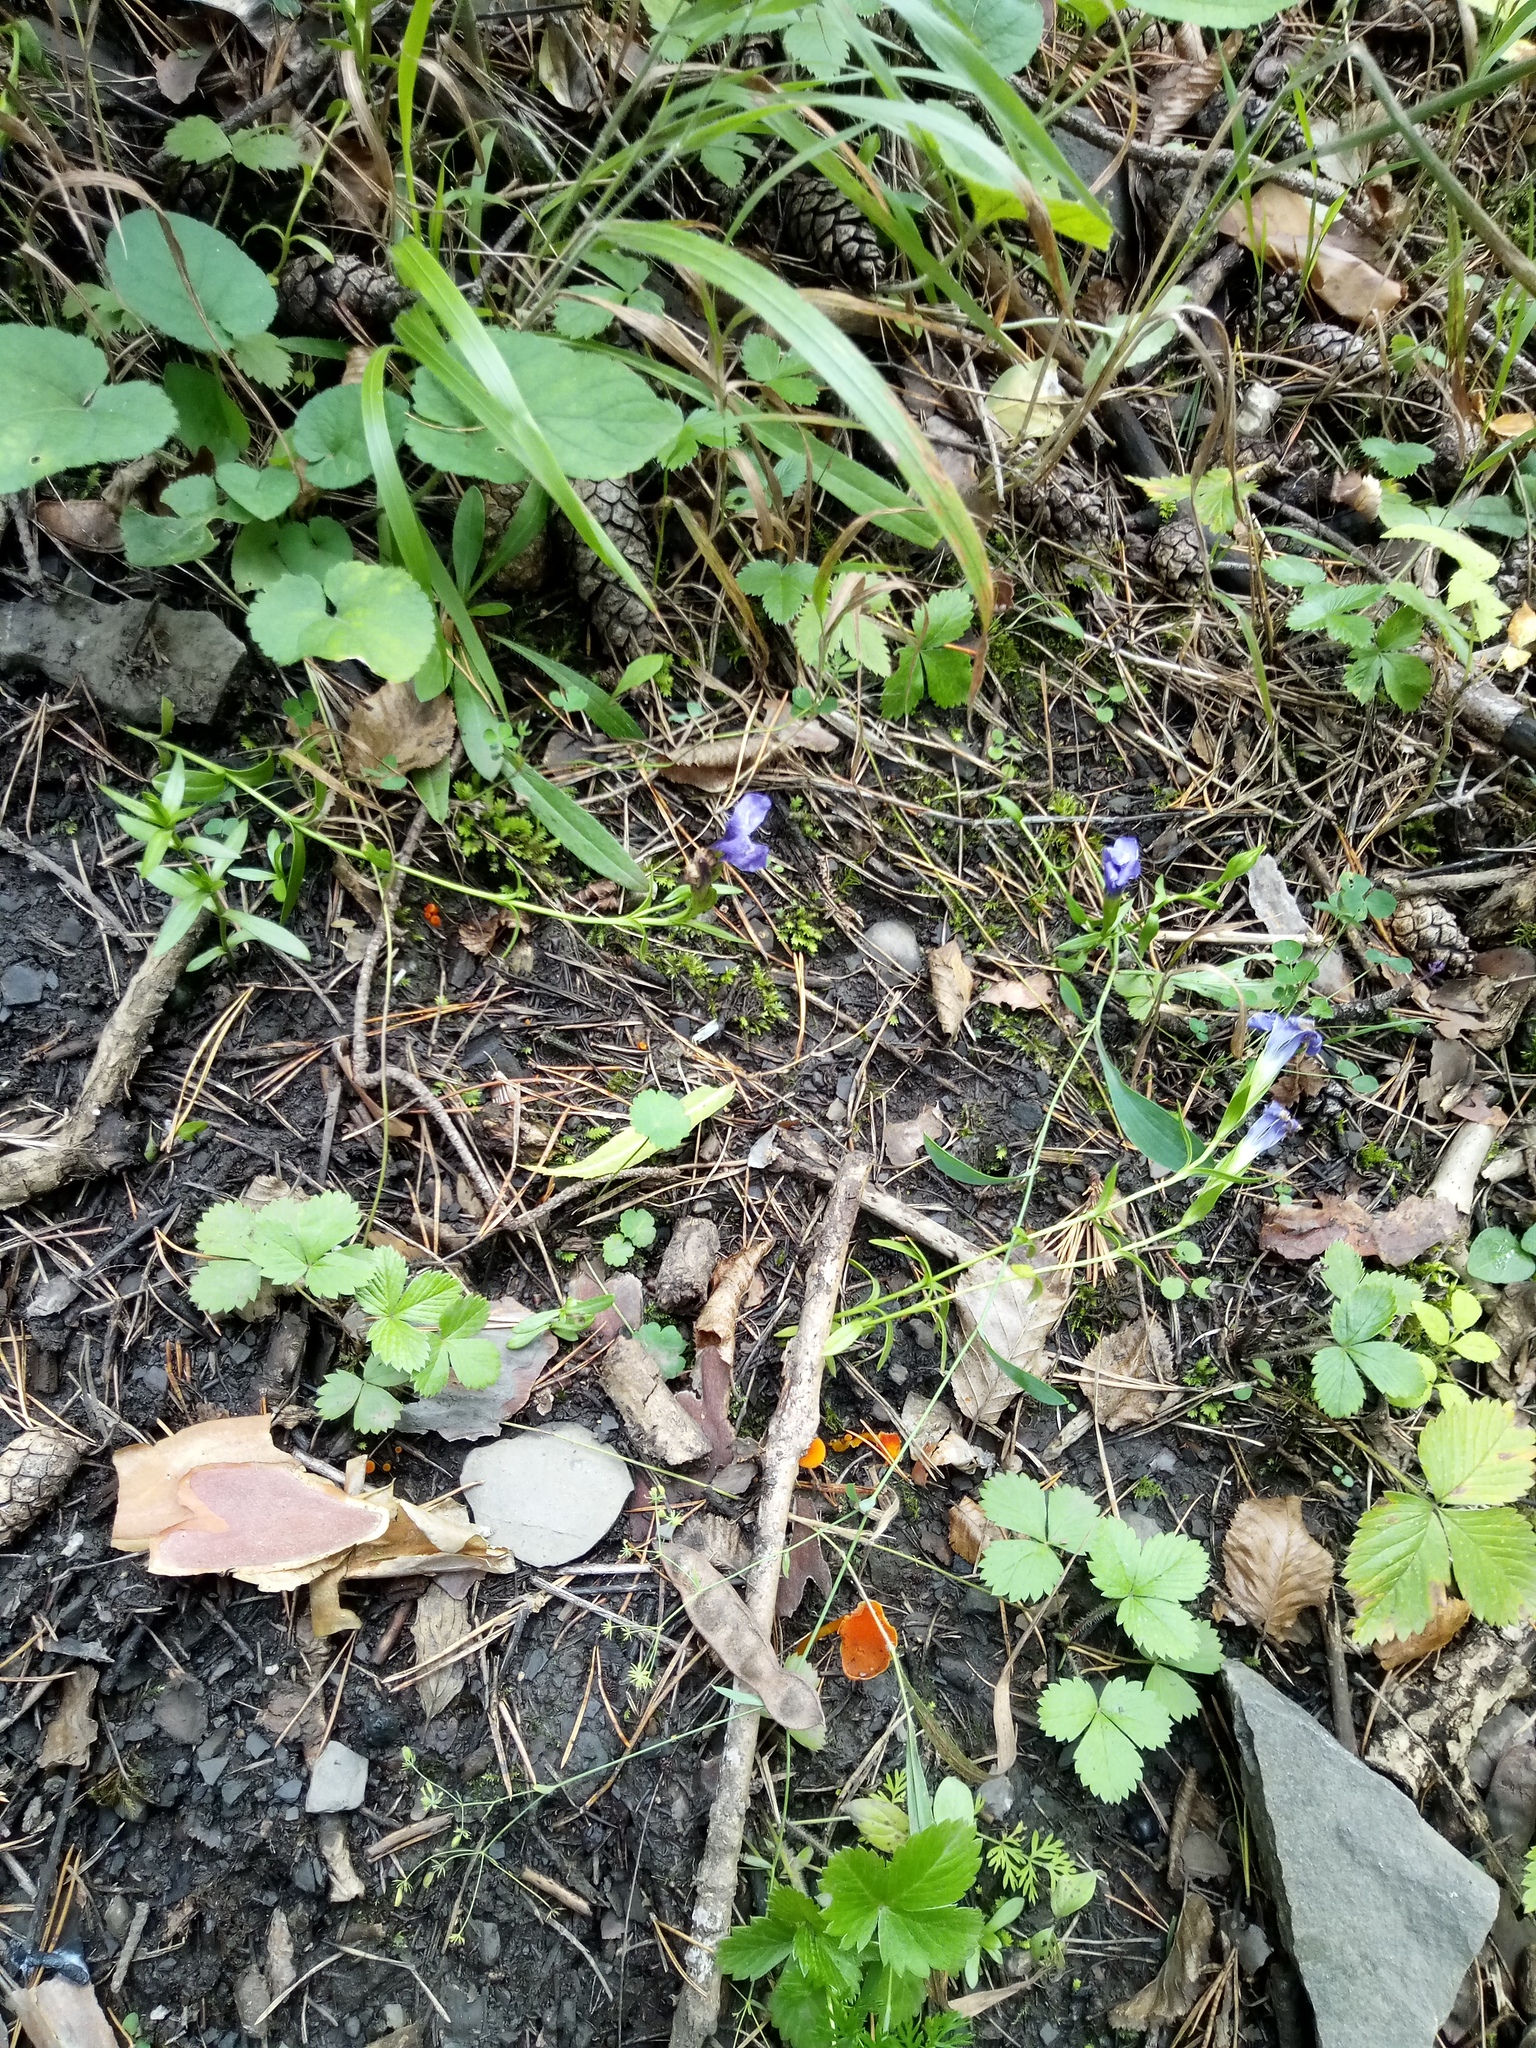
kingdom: Plantae
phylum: Tracheophyta
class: Magnoliopsida
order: Gentianales
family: Gentianaceae
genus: Gentianopsis
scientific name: Gentianopsis ciliata
